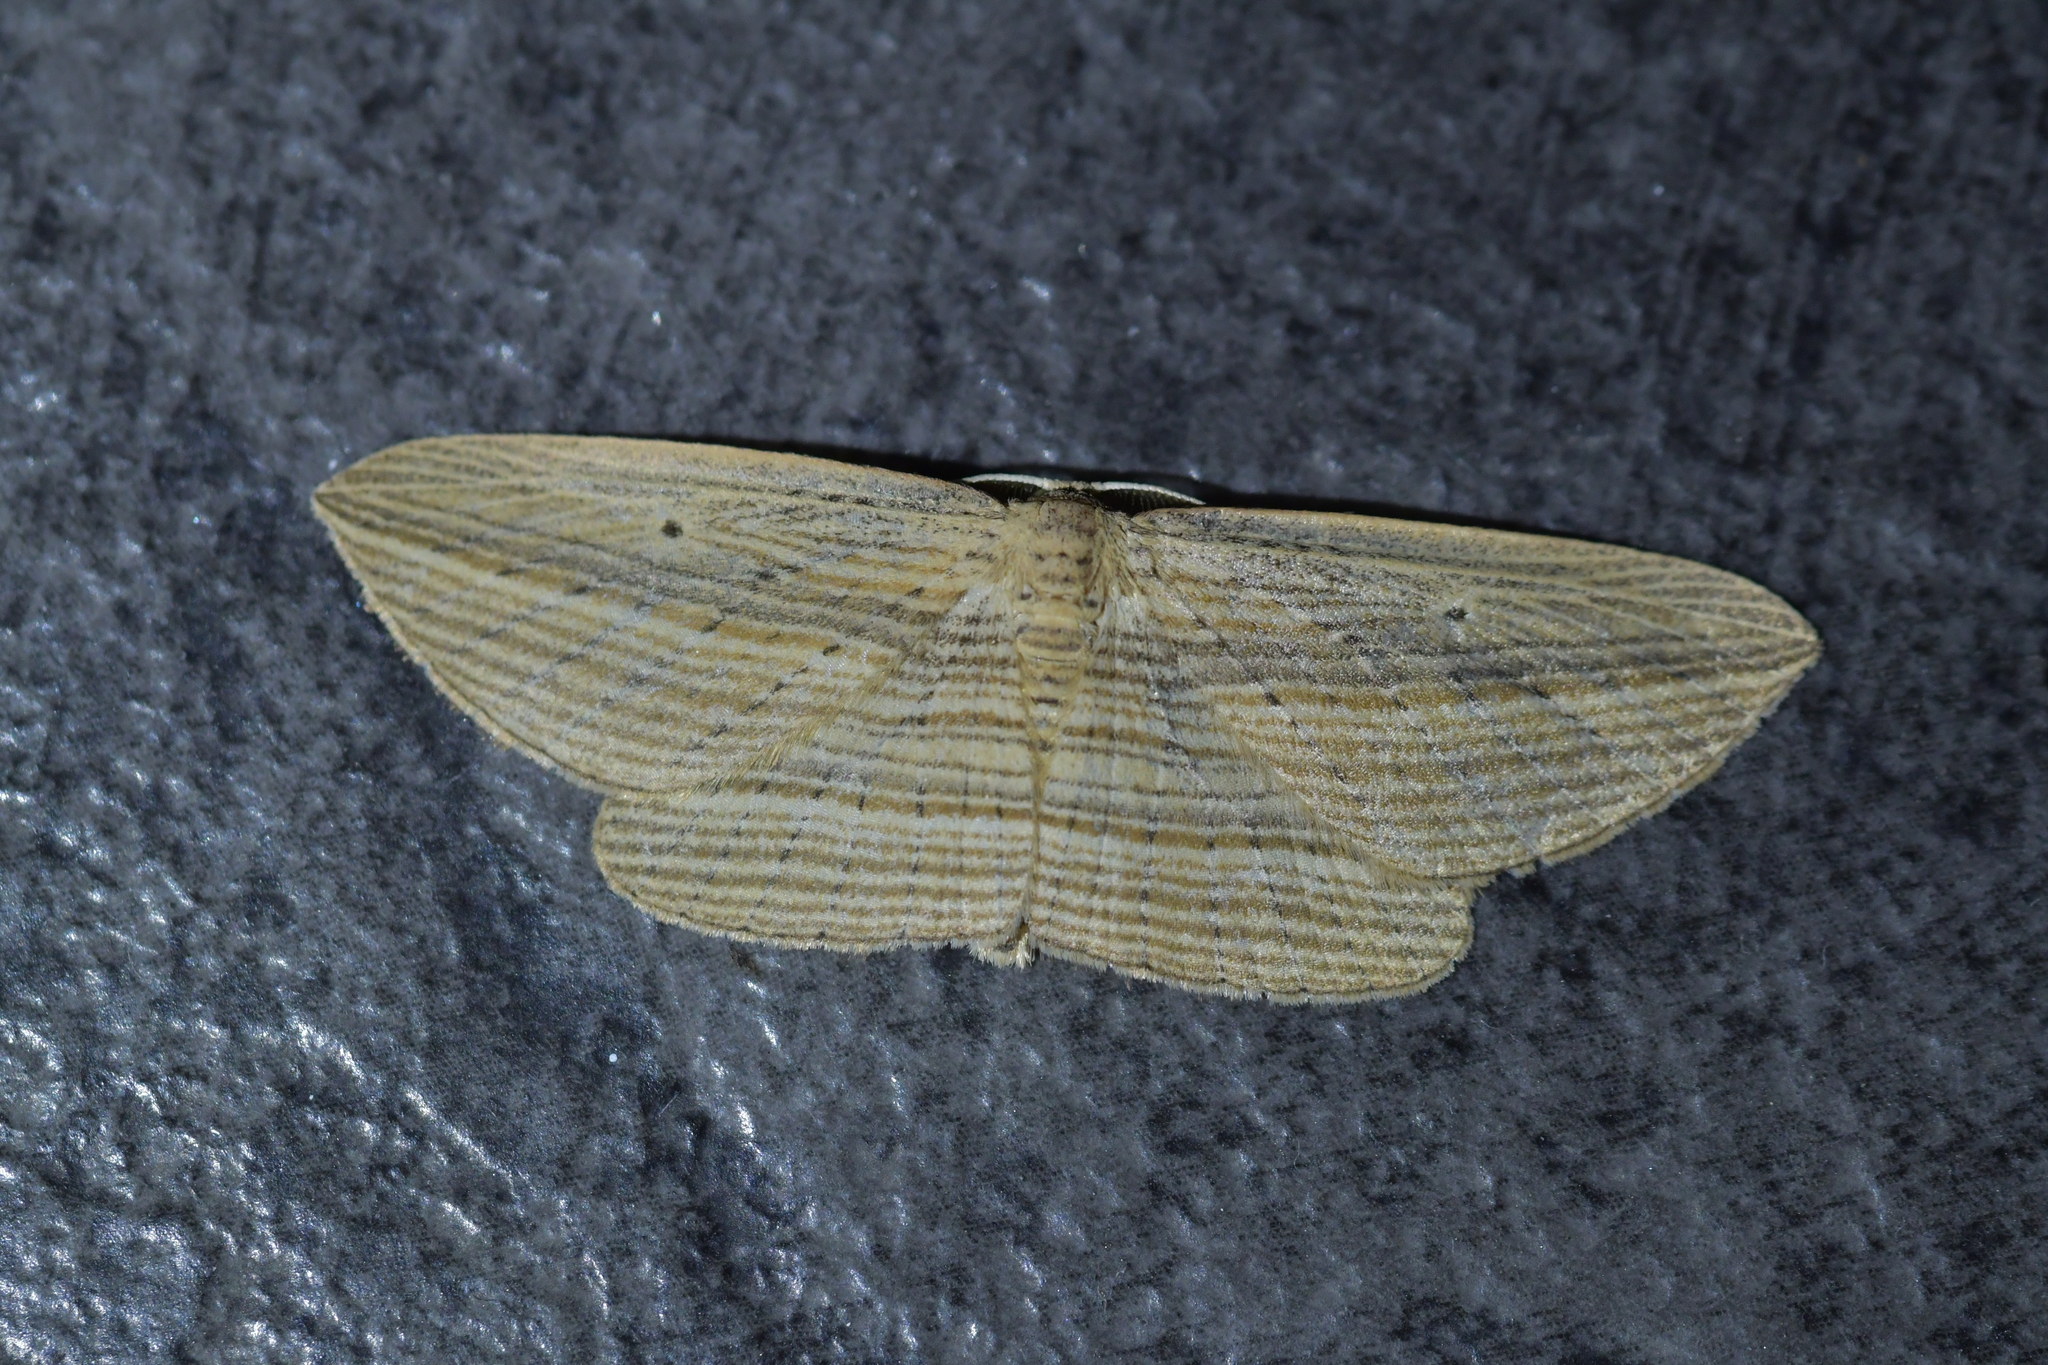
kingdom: Animalia
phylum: Arthropoda
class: Insecta
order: Lepidoptera
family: Geometridae
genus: Epiphryne
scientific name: Epiphryne verriculata
